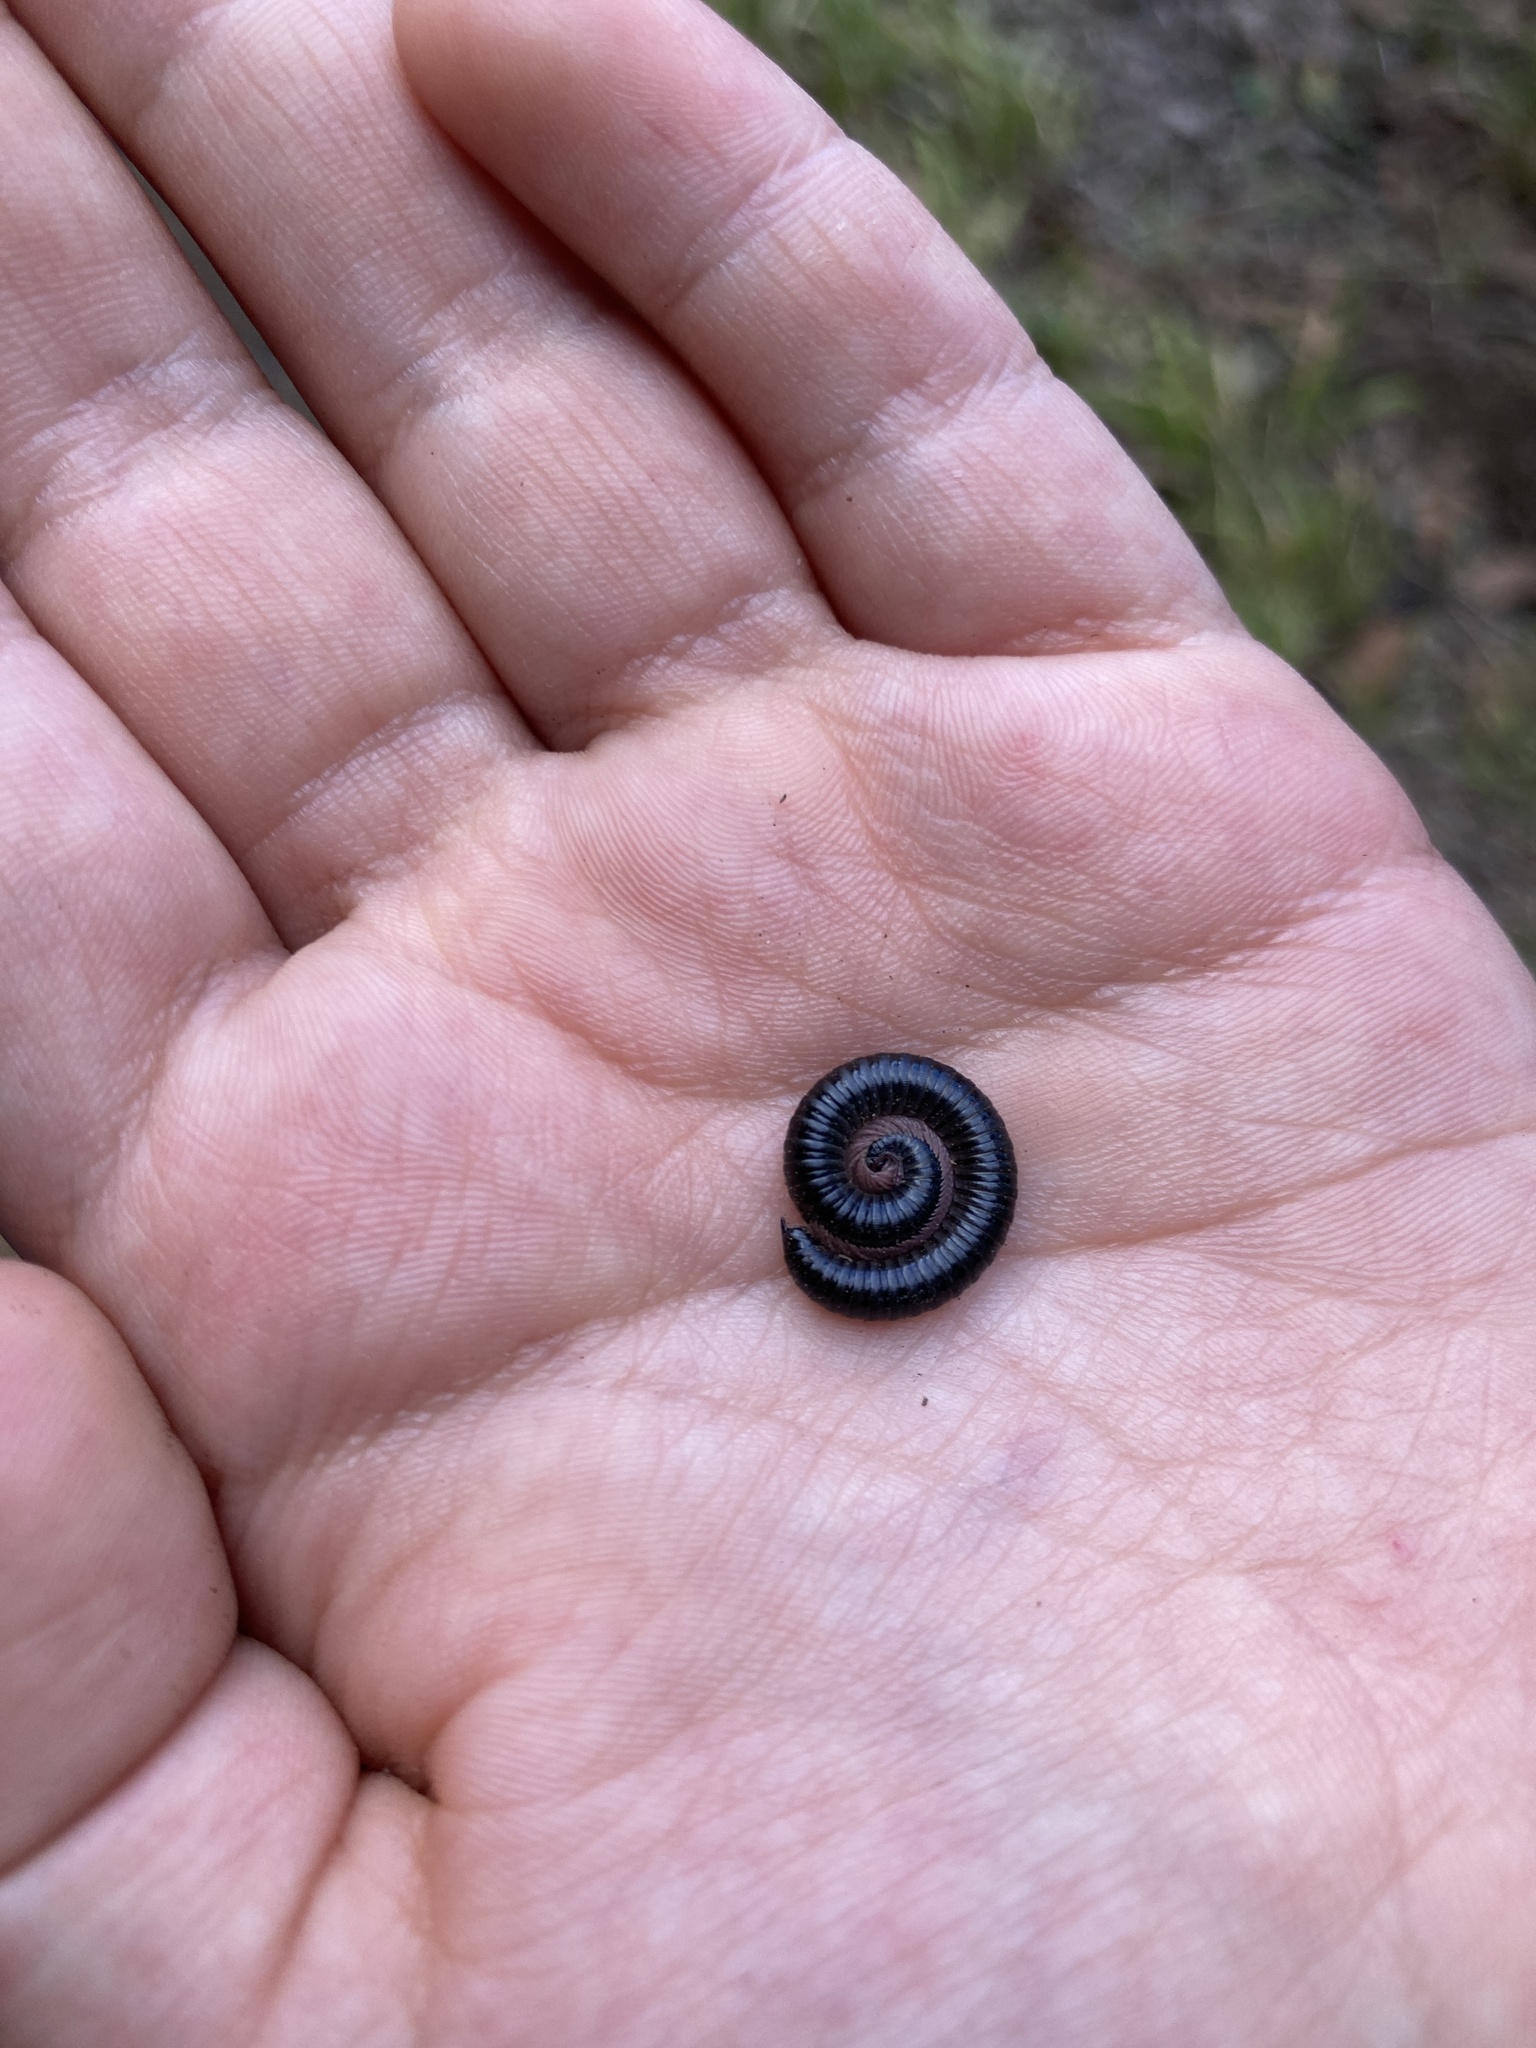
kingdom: Animalia
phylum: Arthropoda
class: Diplopoda
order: Julida
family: Julidae
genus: Ommatoiulus
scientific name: Ommatoiulus moreleti
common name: Portuguese millipede
